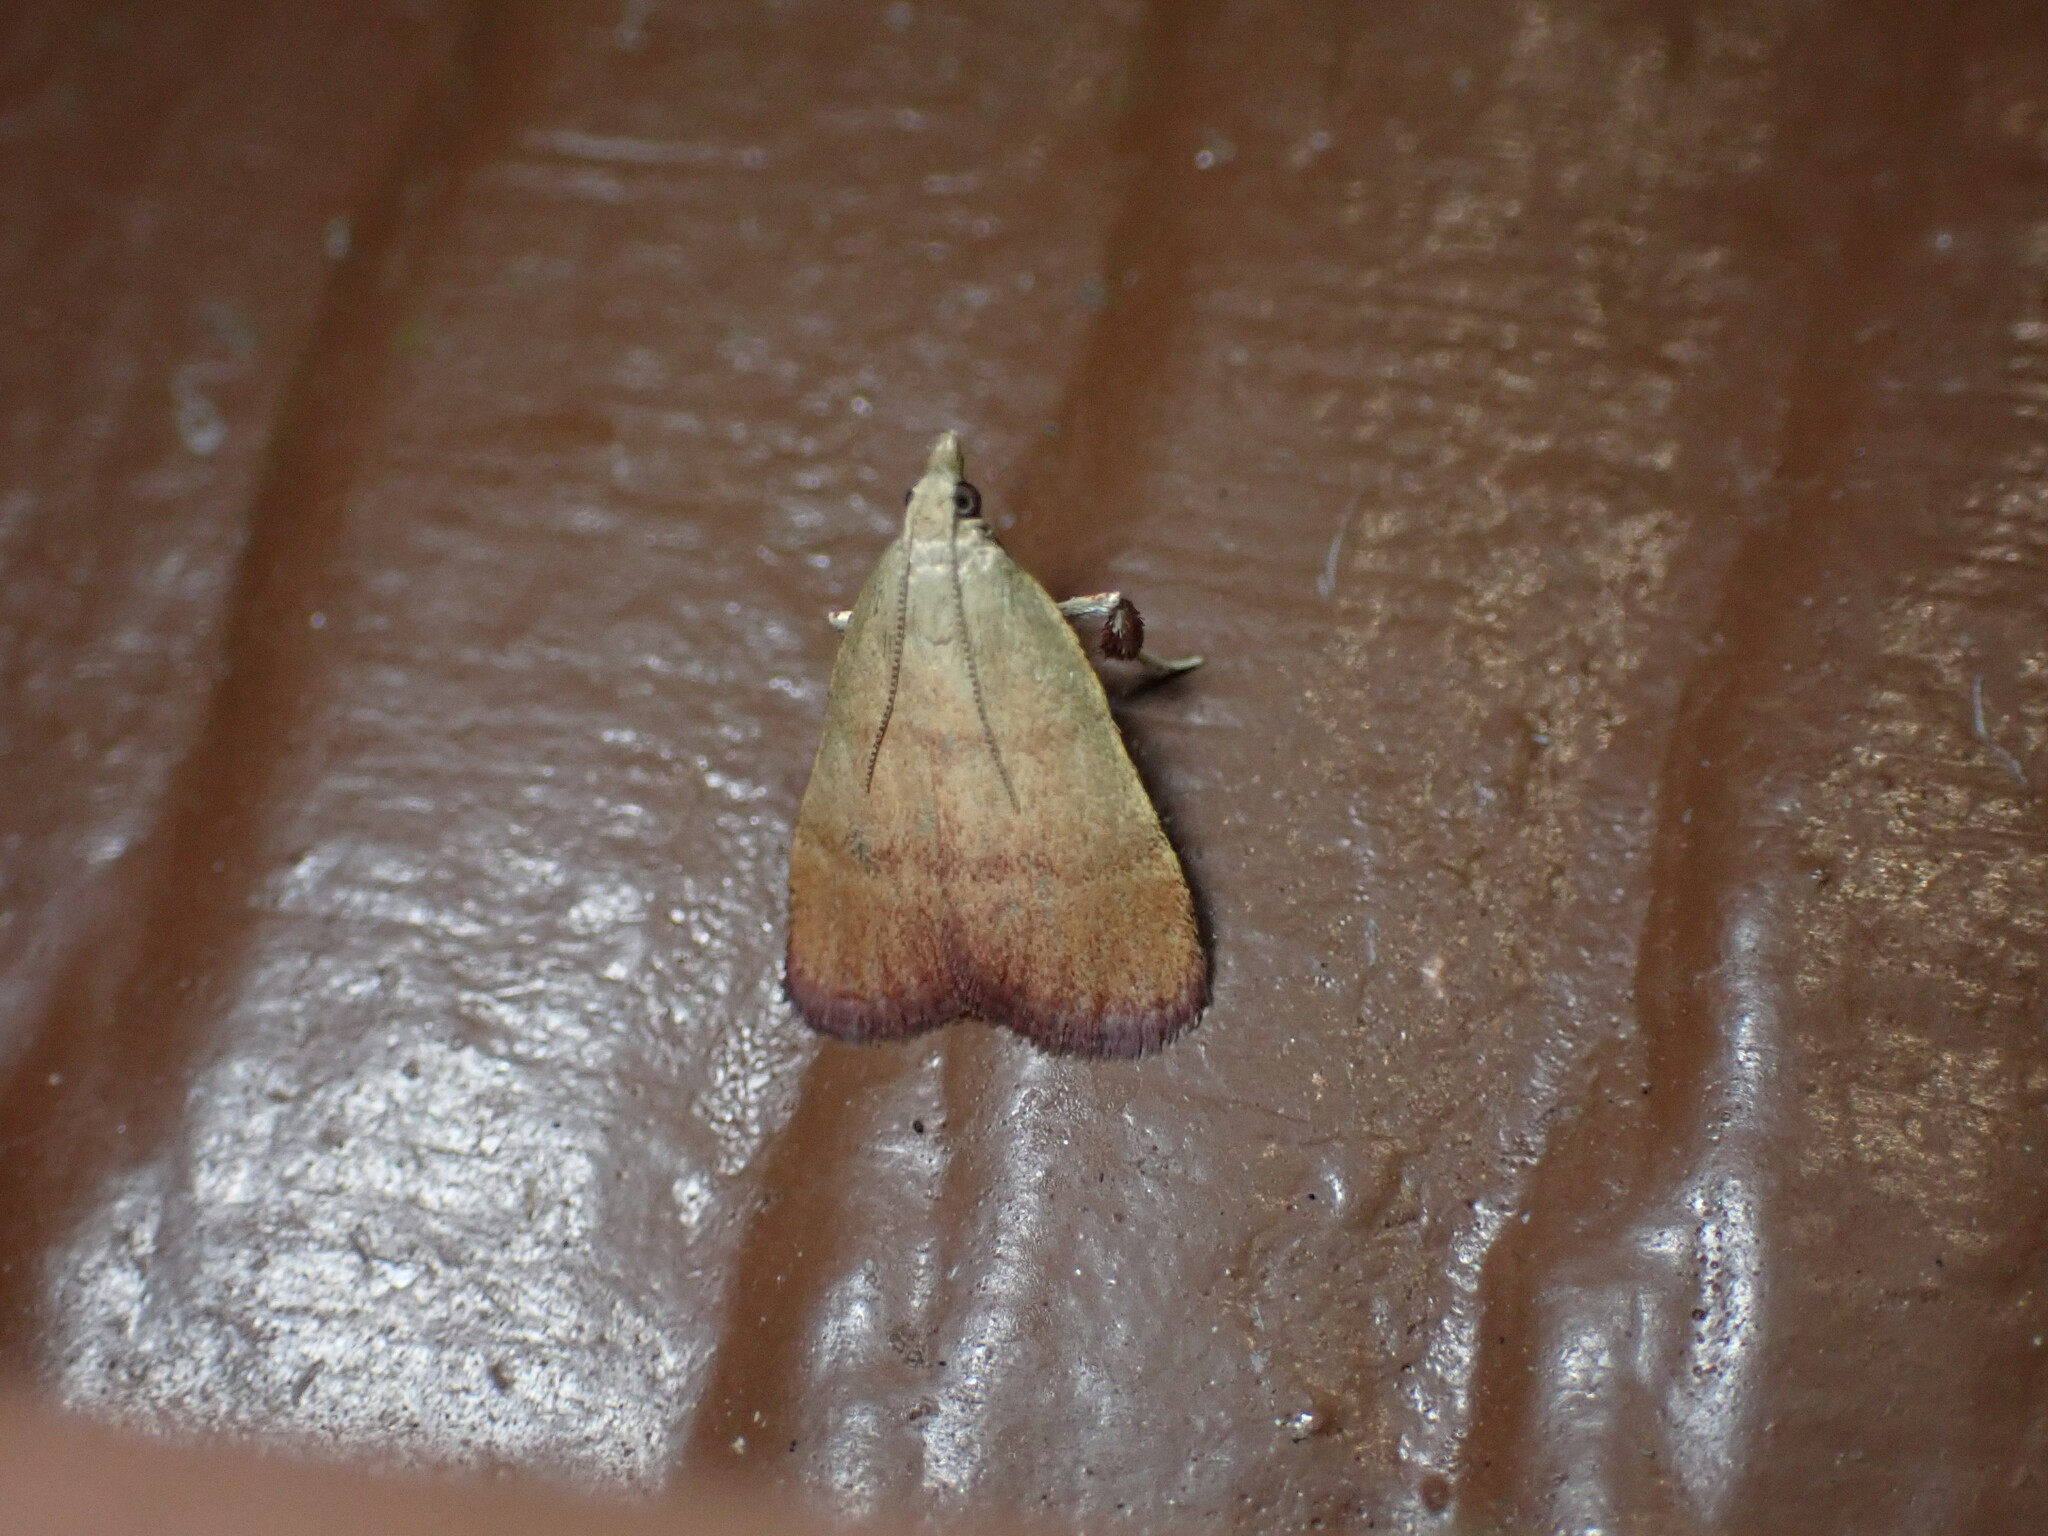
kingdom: Animalia
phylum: Arthropoda
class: Insecta
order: Lepidoptera
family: Pyralidae
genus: Condylolomia
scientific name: Condylolomia participialis
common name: Drab condylolomia moth
